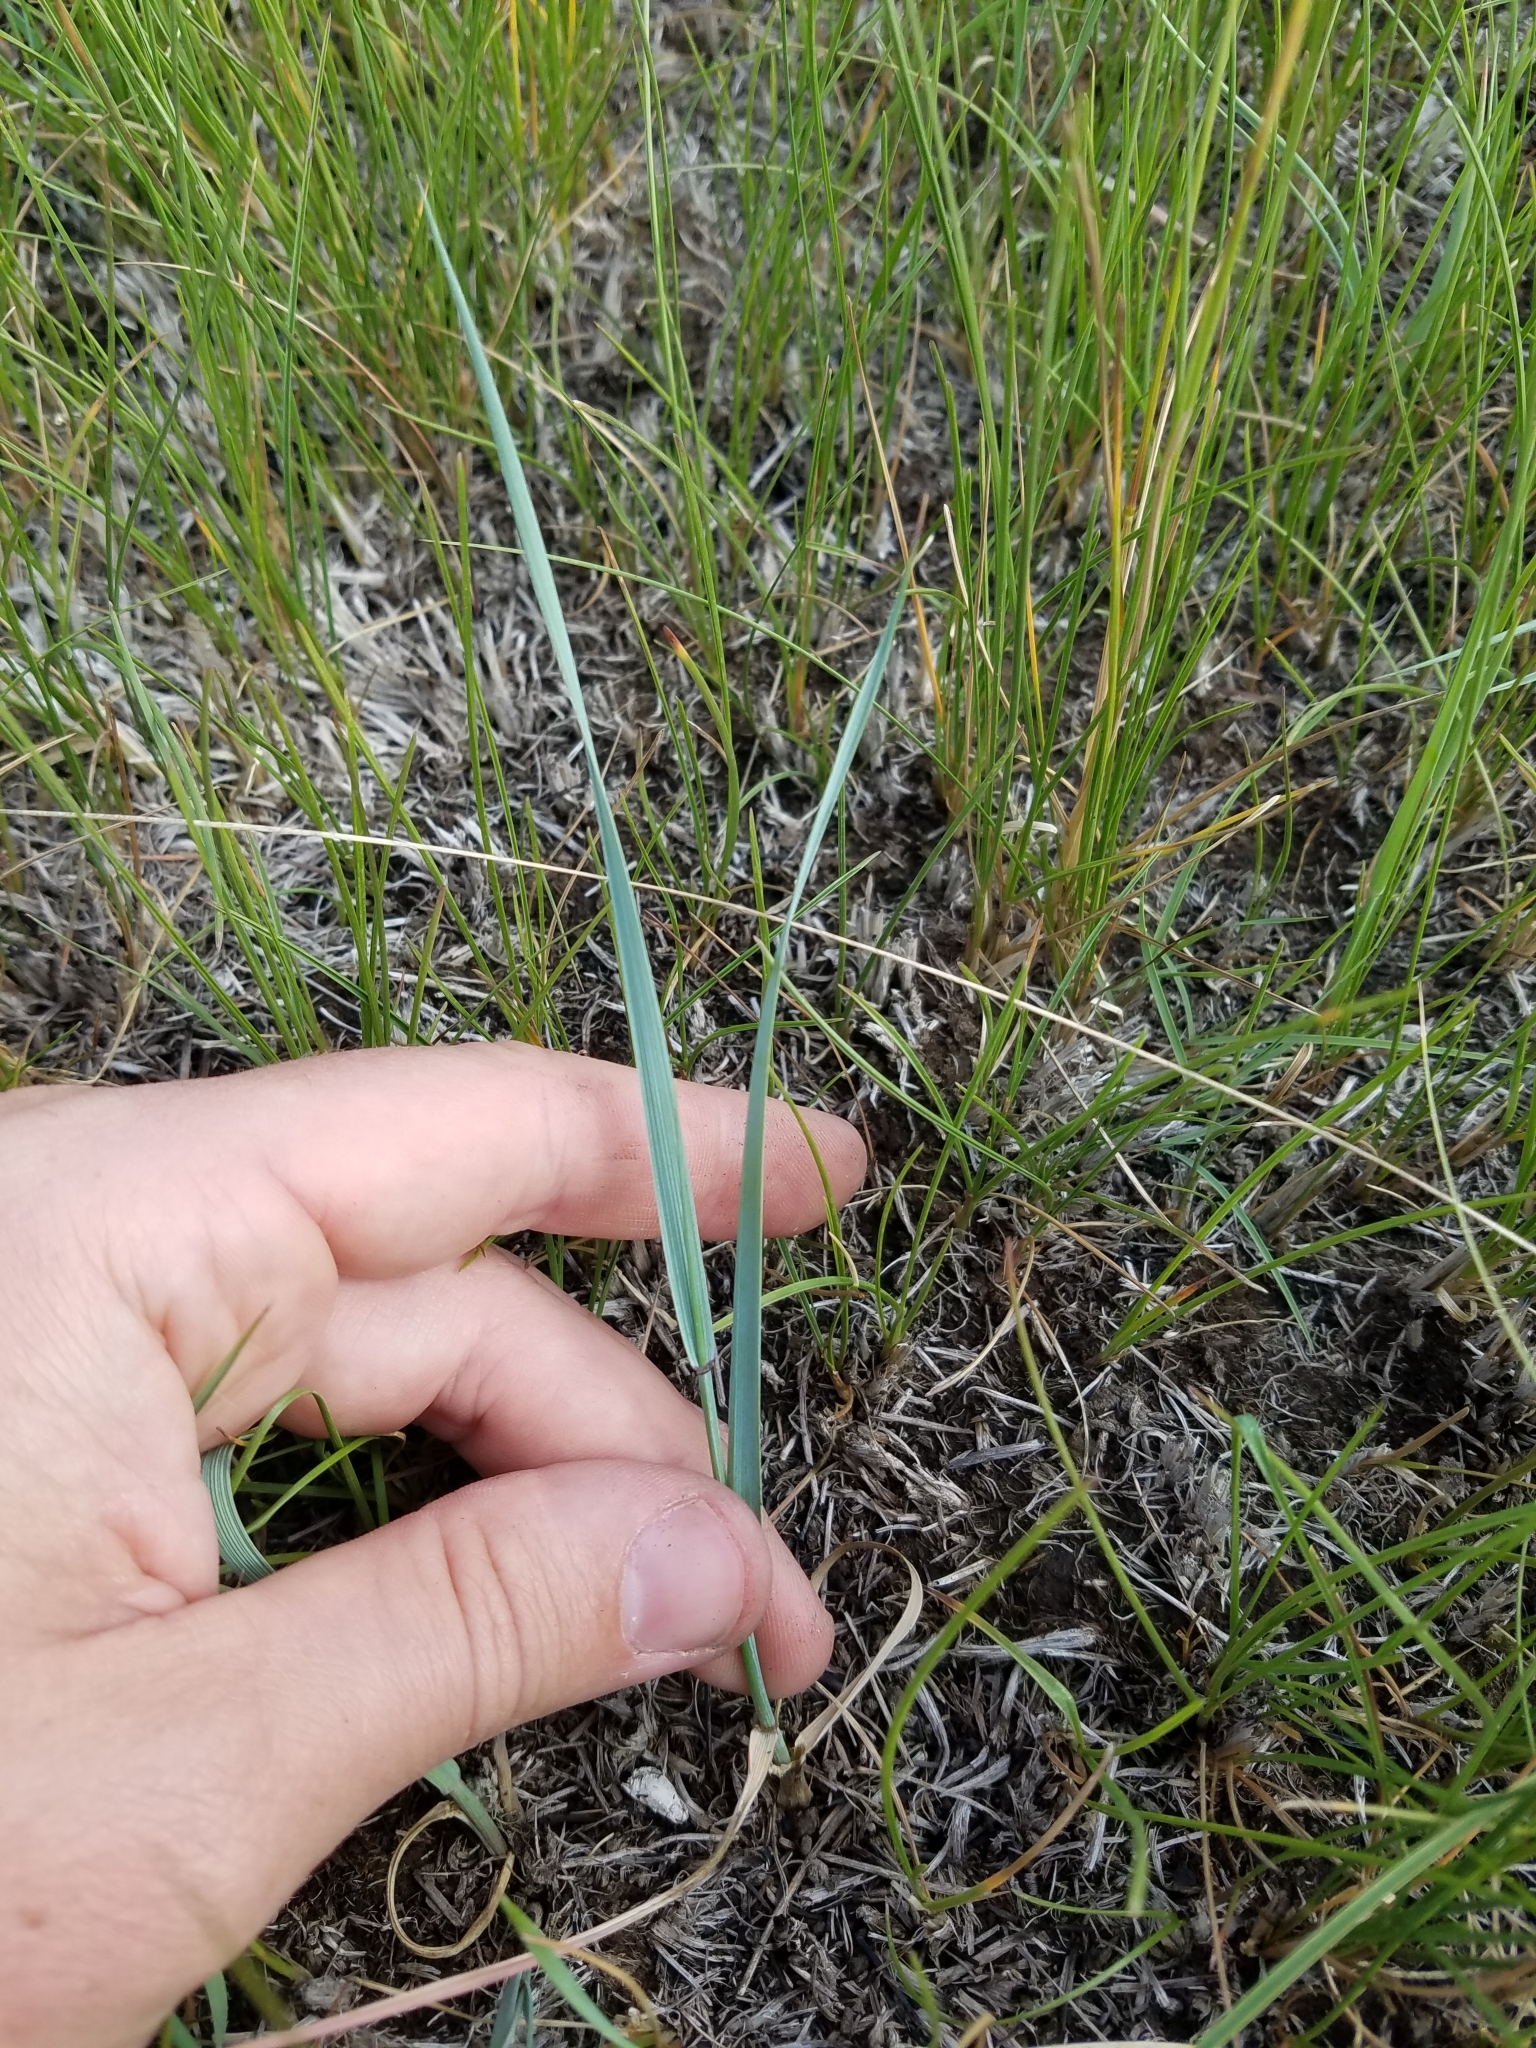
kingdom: Plantae
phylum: Tracheophyta
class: Liliopsida
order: Poales
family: Poaceae
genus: Elymus
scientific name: Elymus smithii
